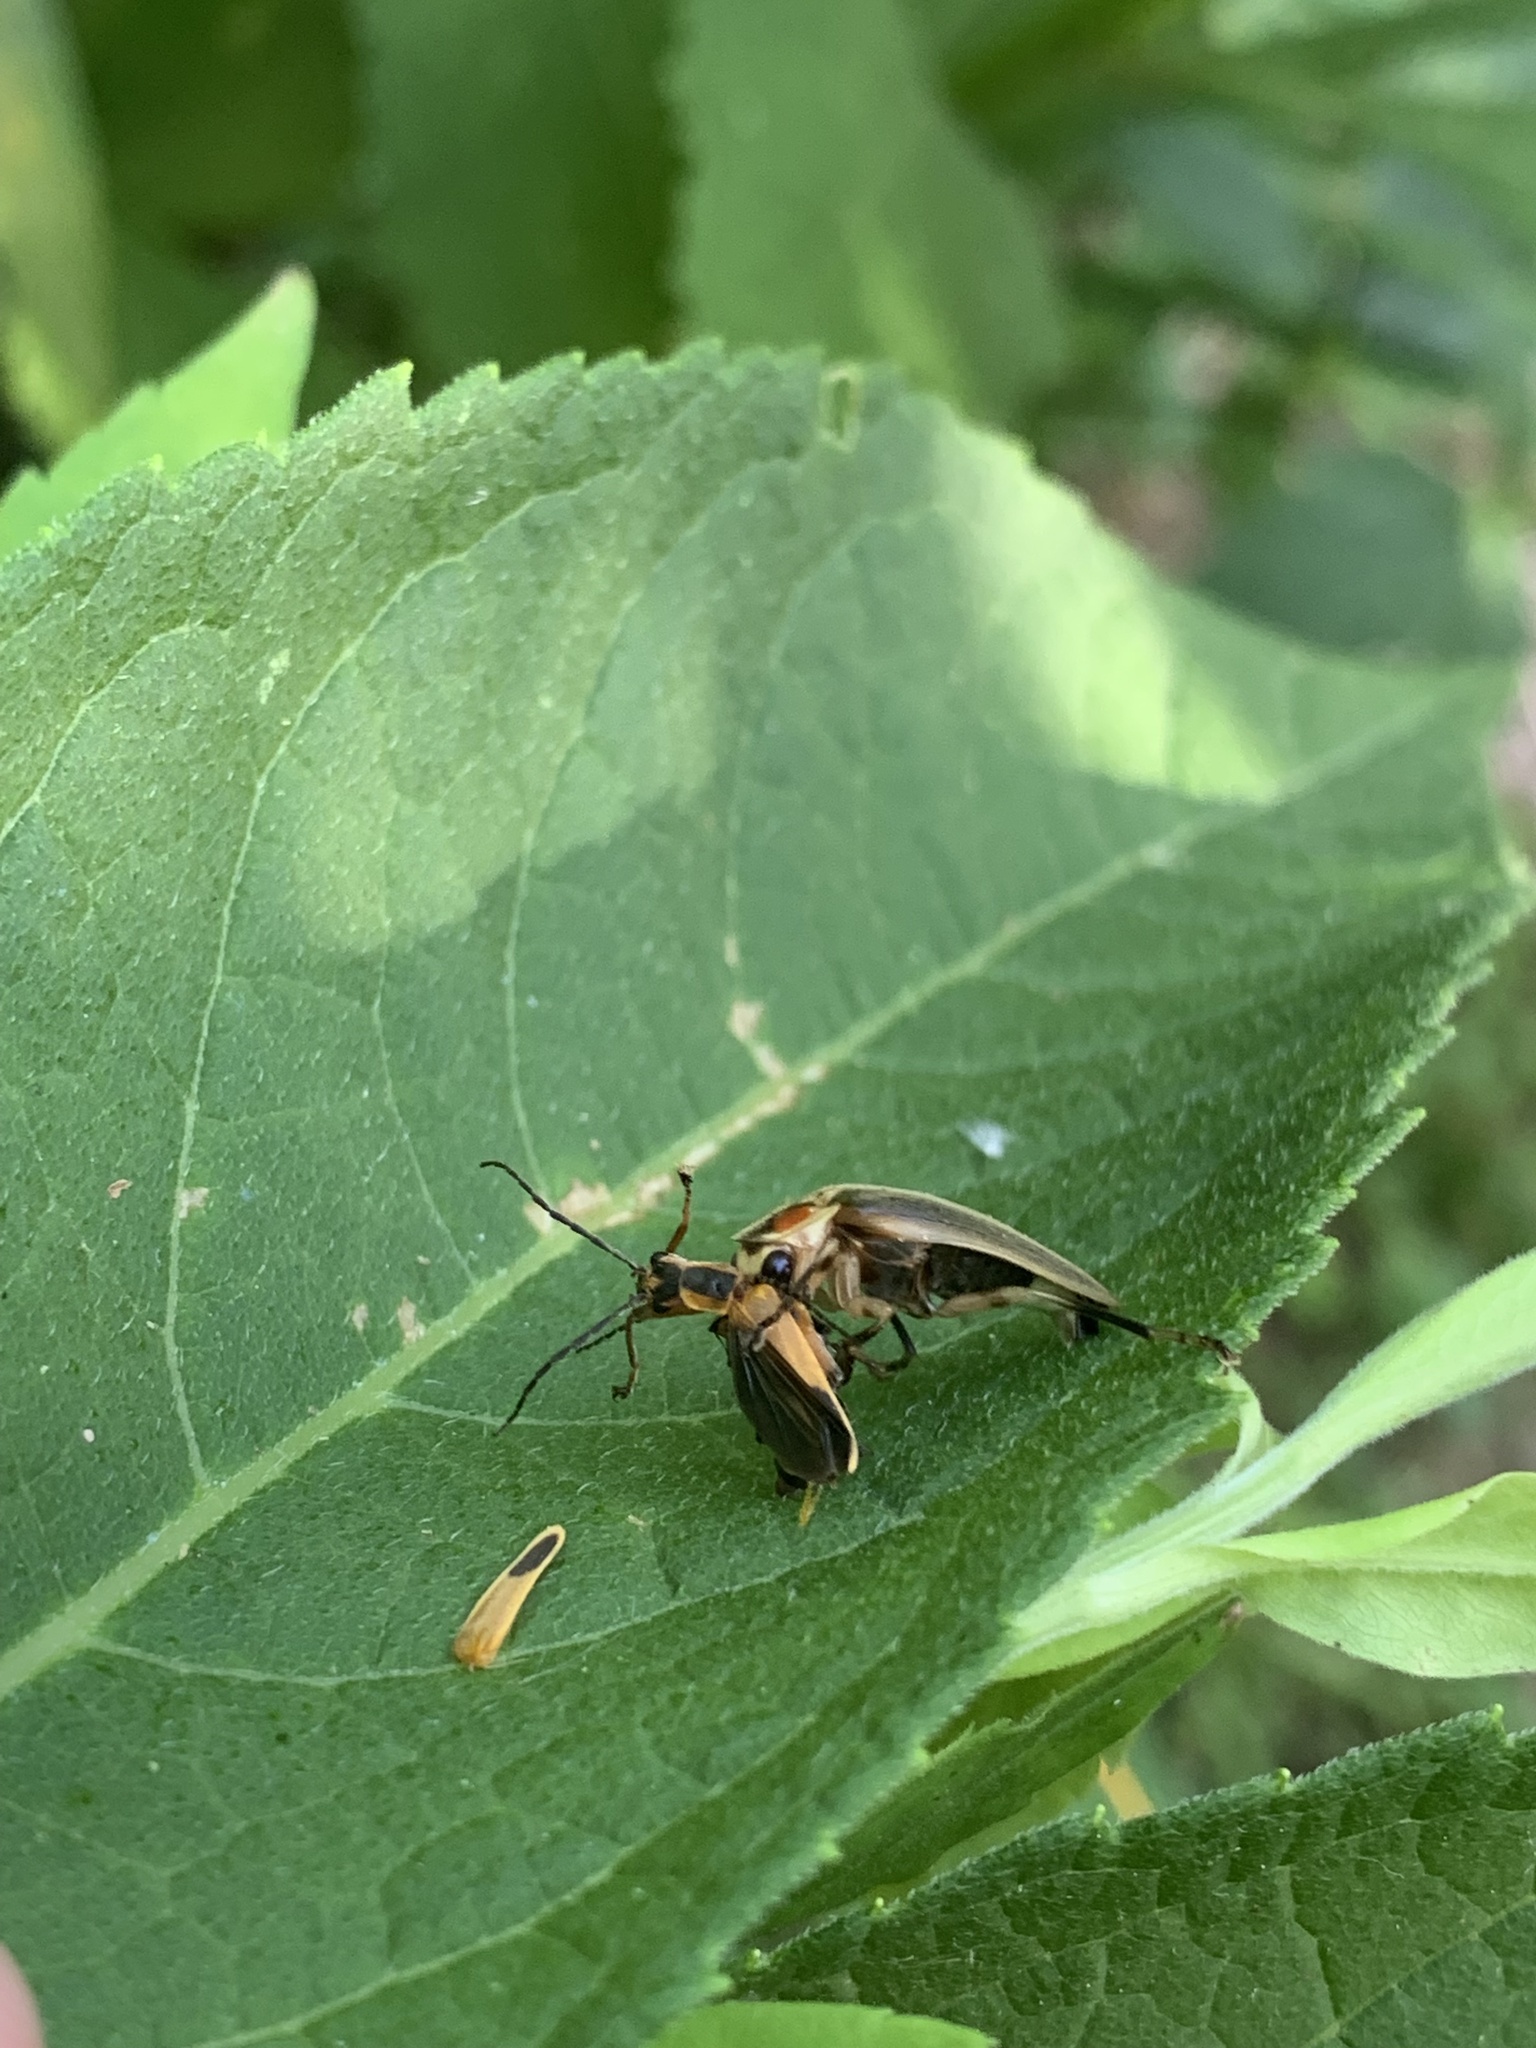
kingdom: Animalia
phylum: Arthropoda
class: Insecta
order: Coleoptera
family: Cantharidae
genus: Chauliognathus
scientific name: Chauliognathus marginatus
